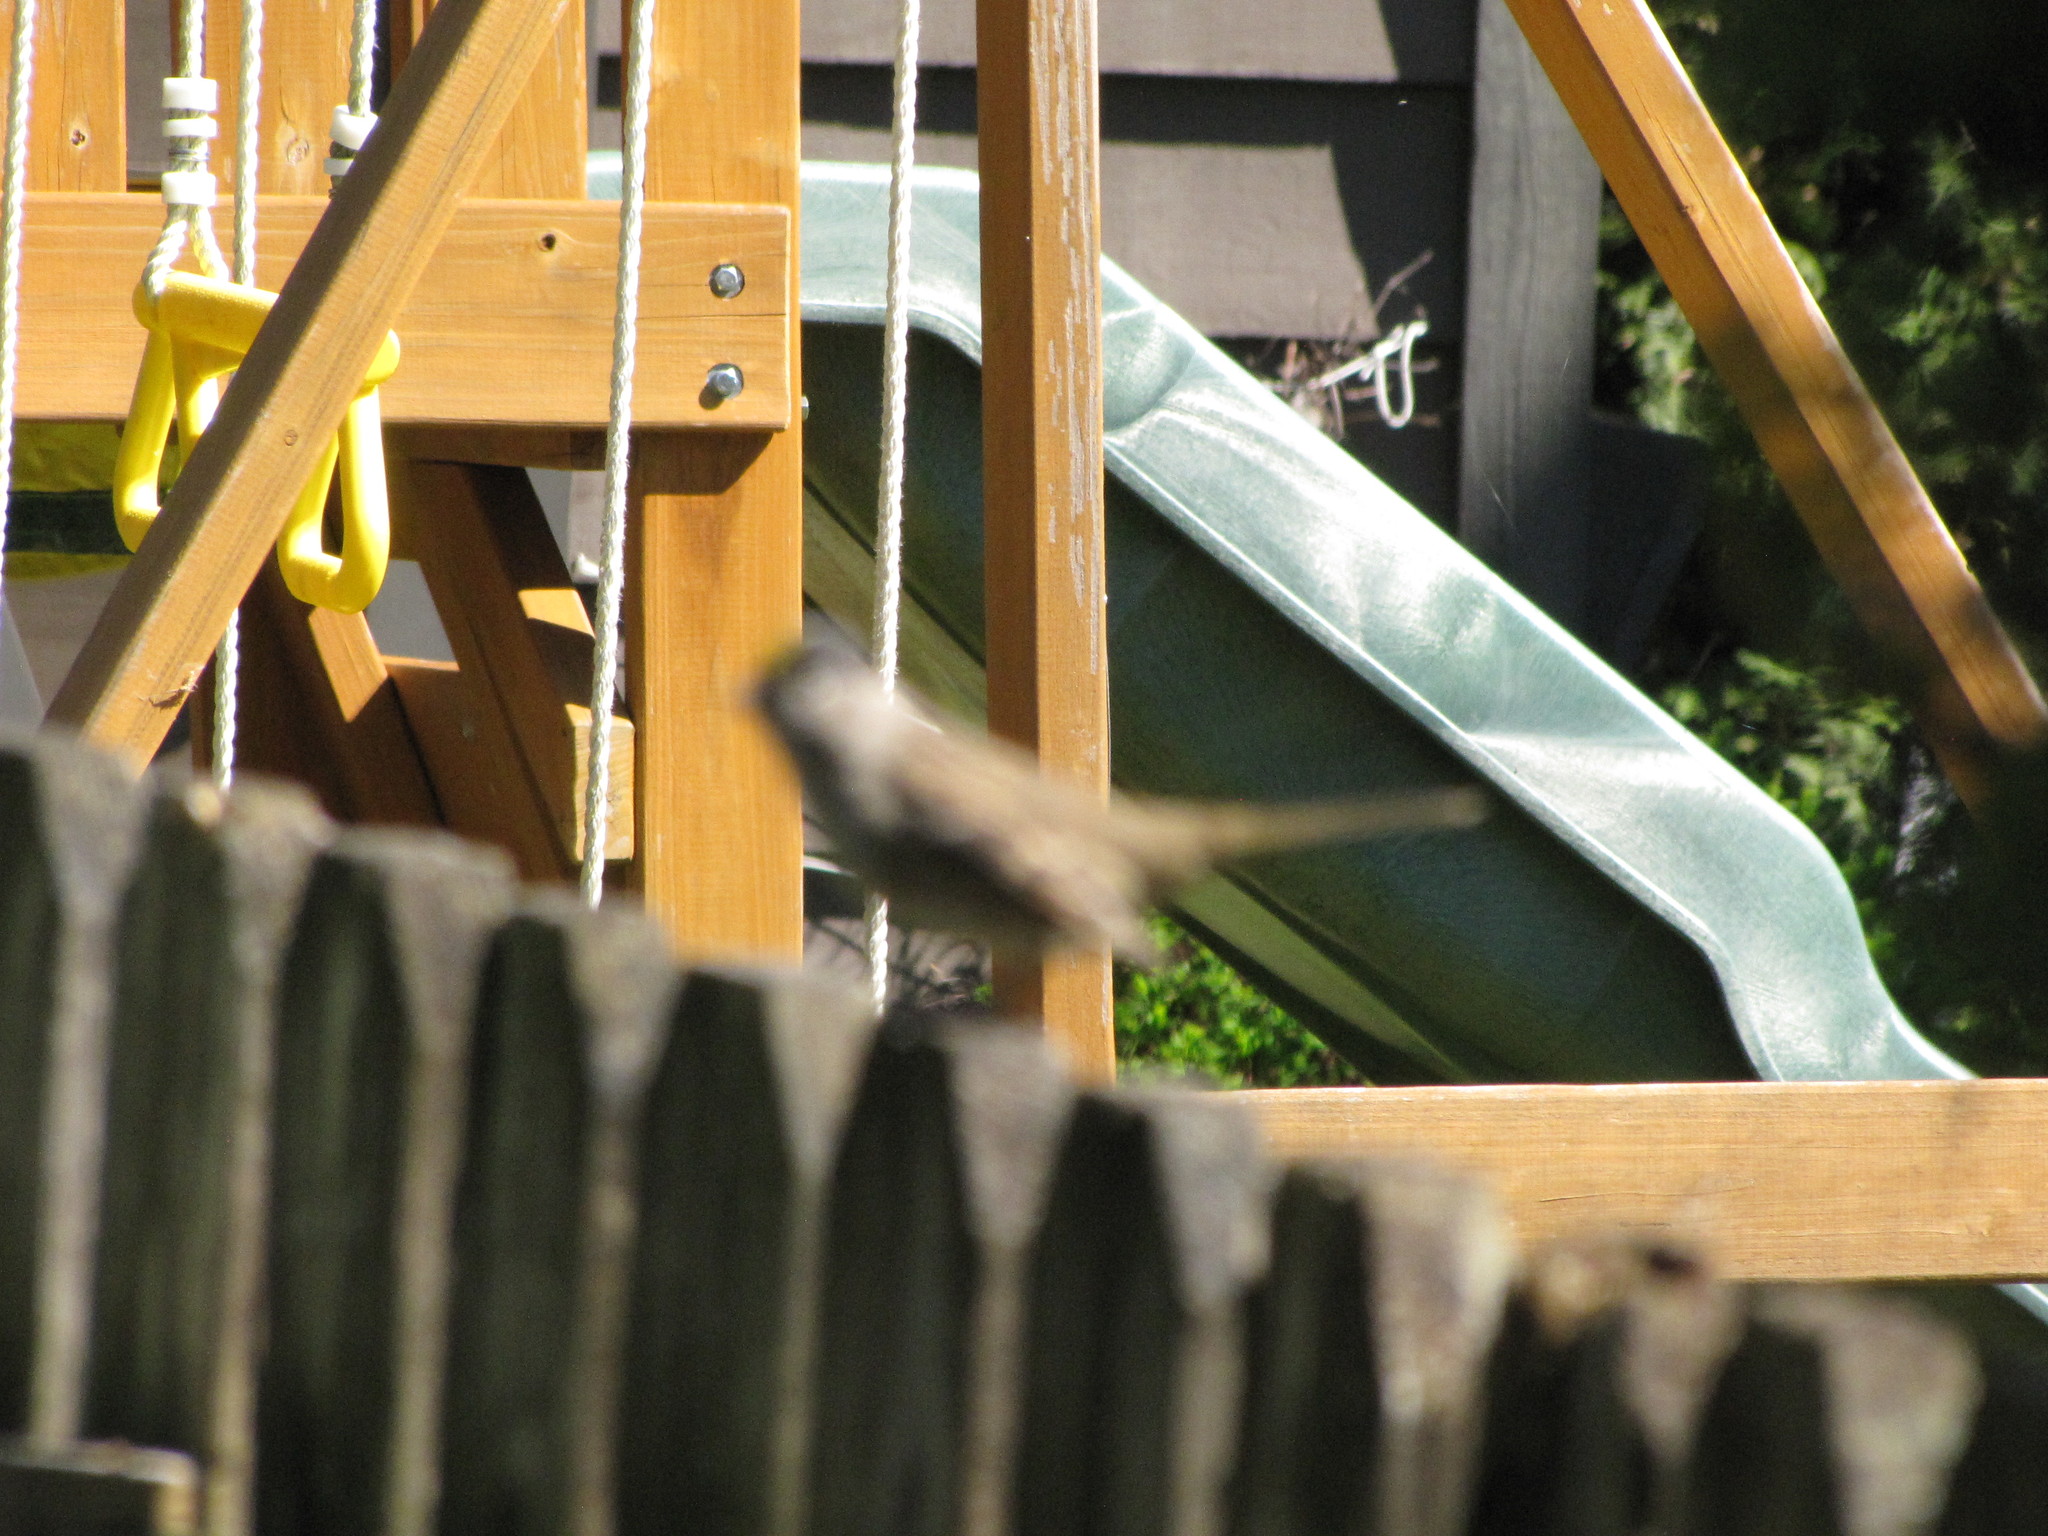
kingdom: Animalia
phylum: Chordata
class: Aves
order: Passeriformes
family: Passerellidae
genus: Zonotrichia
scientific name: Zonotrichia atricapilla
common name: Golden-crowned sparrow
